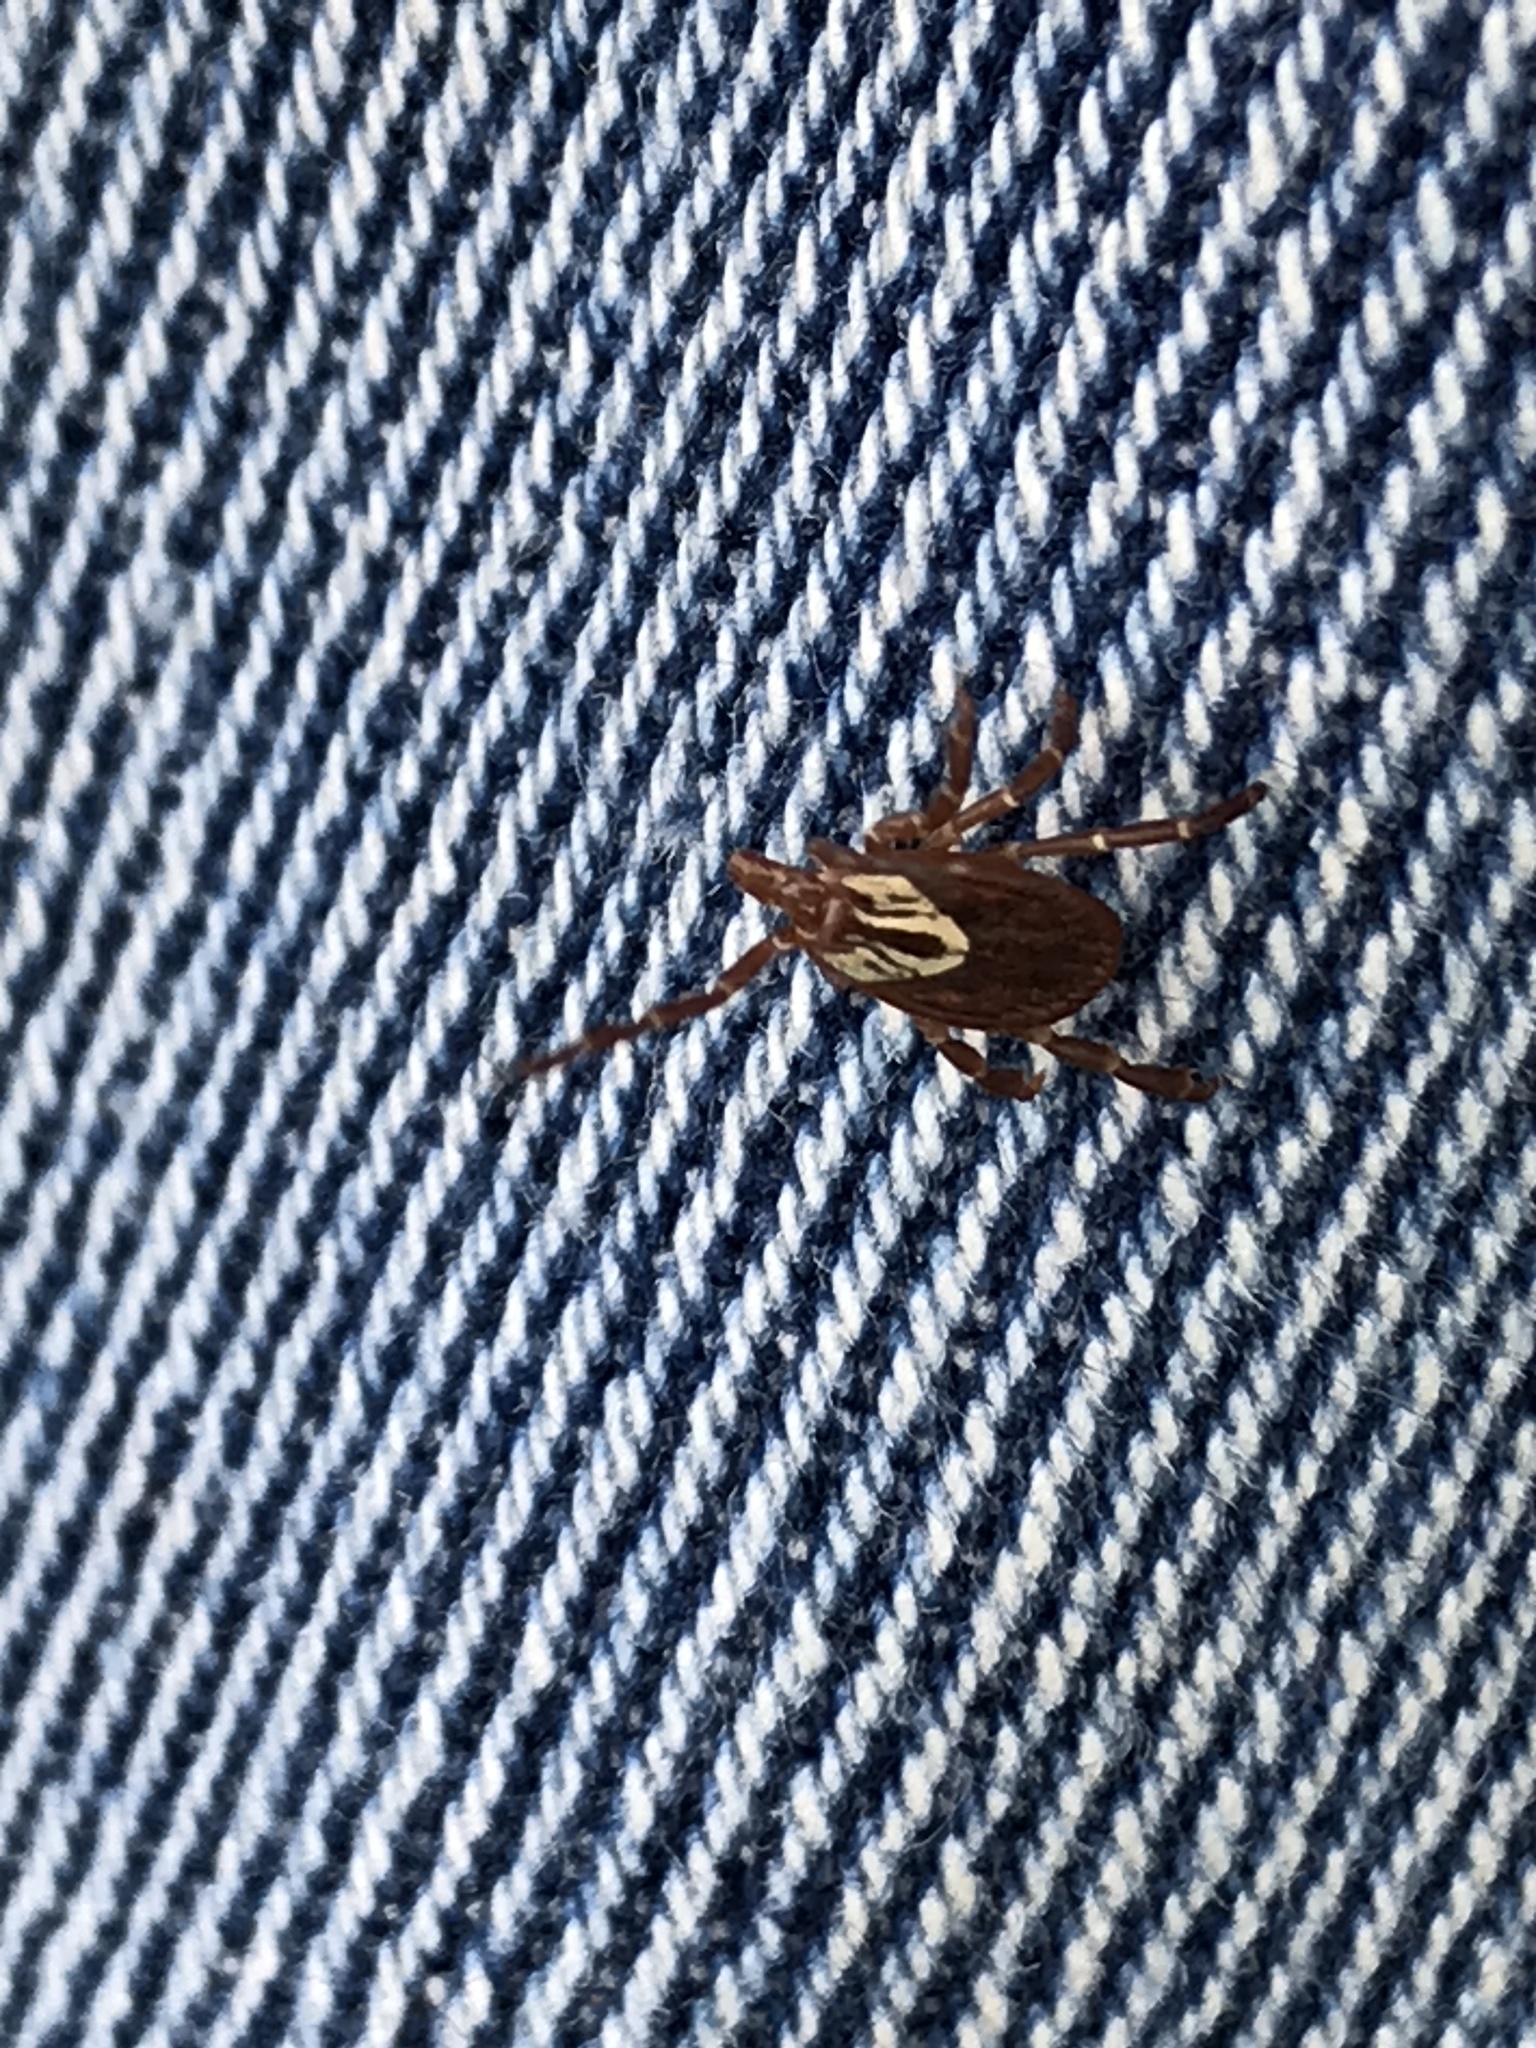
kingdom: Animalia
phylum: Arthropoda
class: Arachnida
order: Ixodida
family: Ixodidae
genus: Amblyomma
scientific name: Amblyomma maculatum
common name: Gulf coast tick
